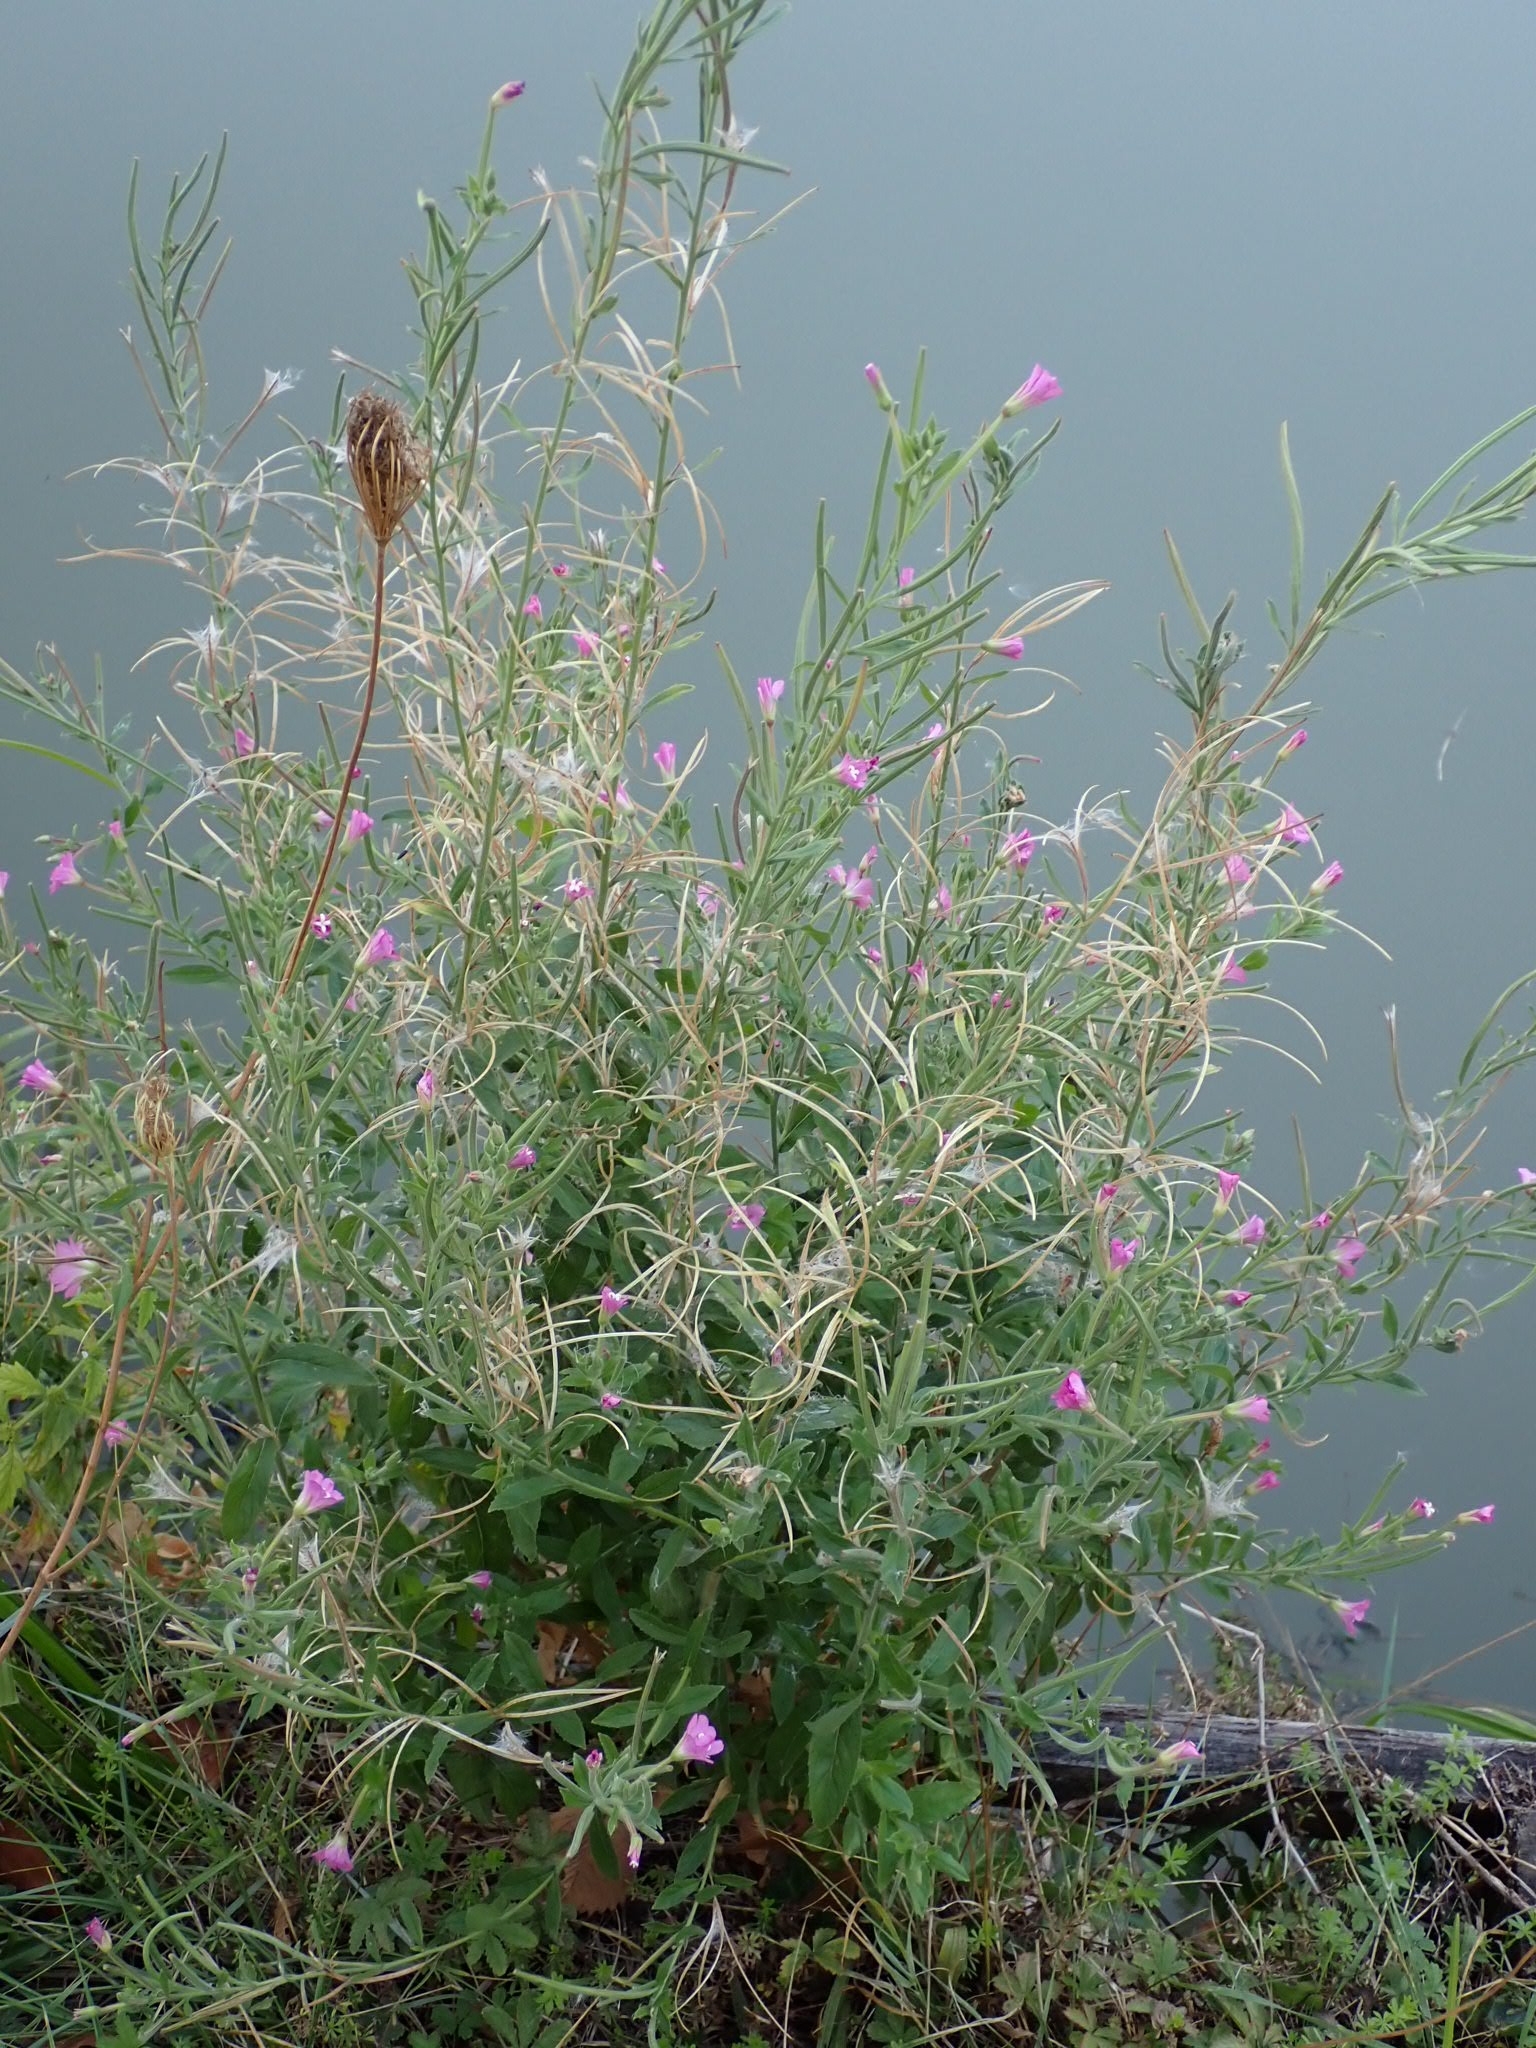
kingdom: Plantae
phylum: Tracheophyta
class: Magnoliopsida
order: Myrtales
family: Onagraceae
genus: Epilobium
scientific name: Epilobium hirsutum
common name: Great willowherb
